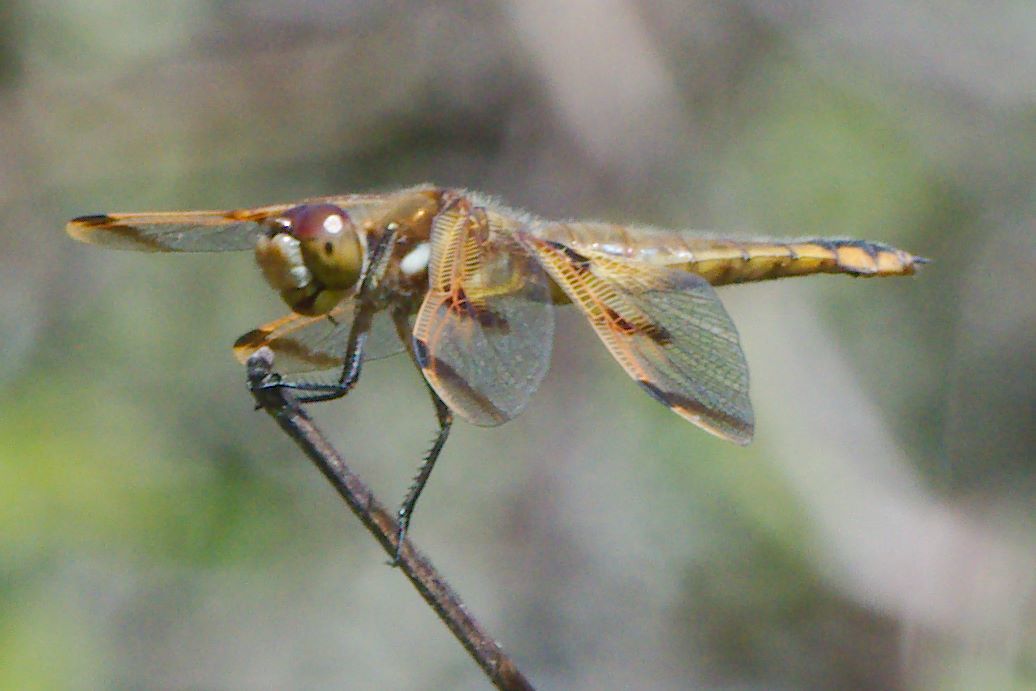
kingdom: Animalia
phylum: Arthropoda
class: Insecta
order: Odonata
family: Libellulidae
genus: Libellula
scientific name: Libellula semifasciata
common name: Painted skimmer
